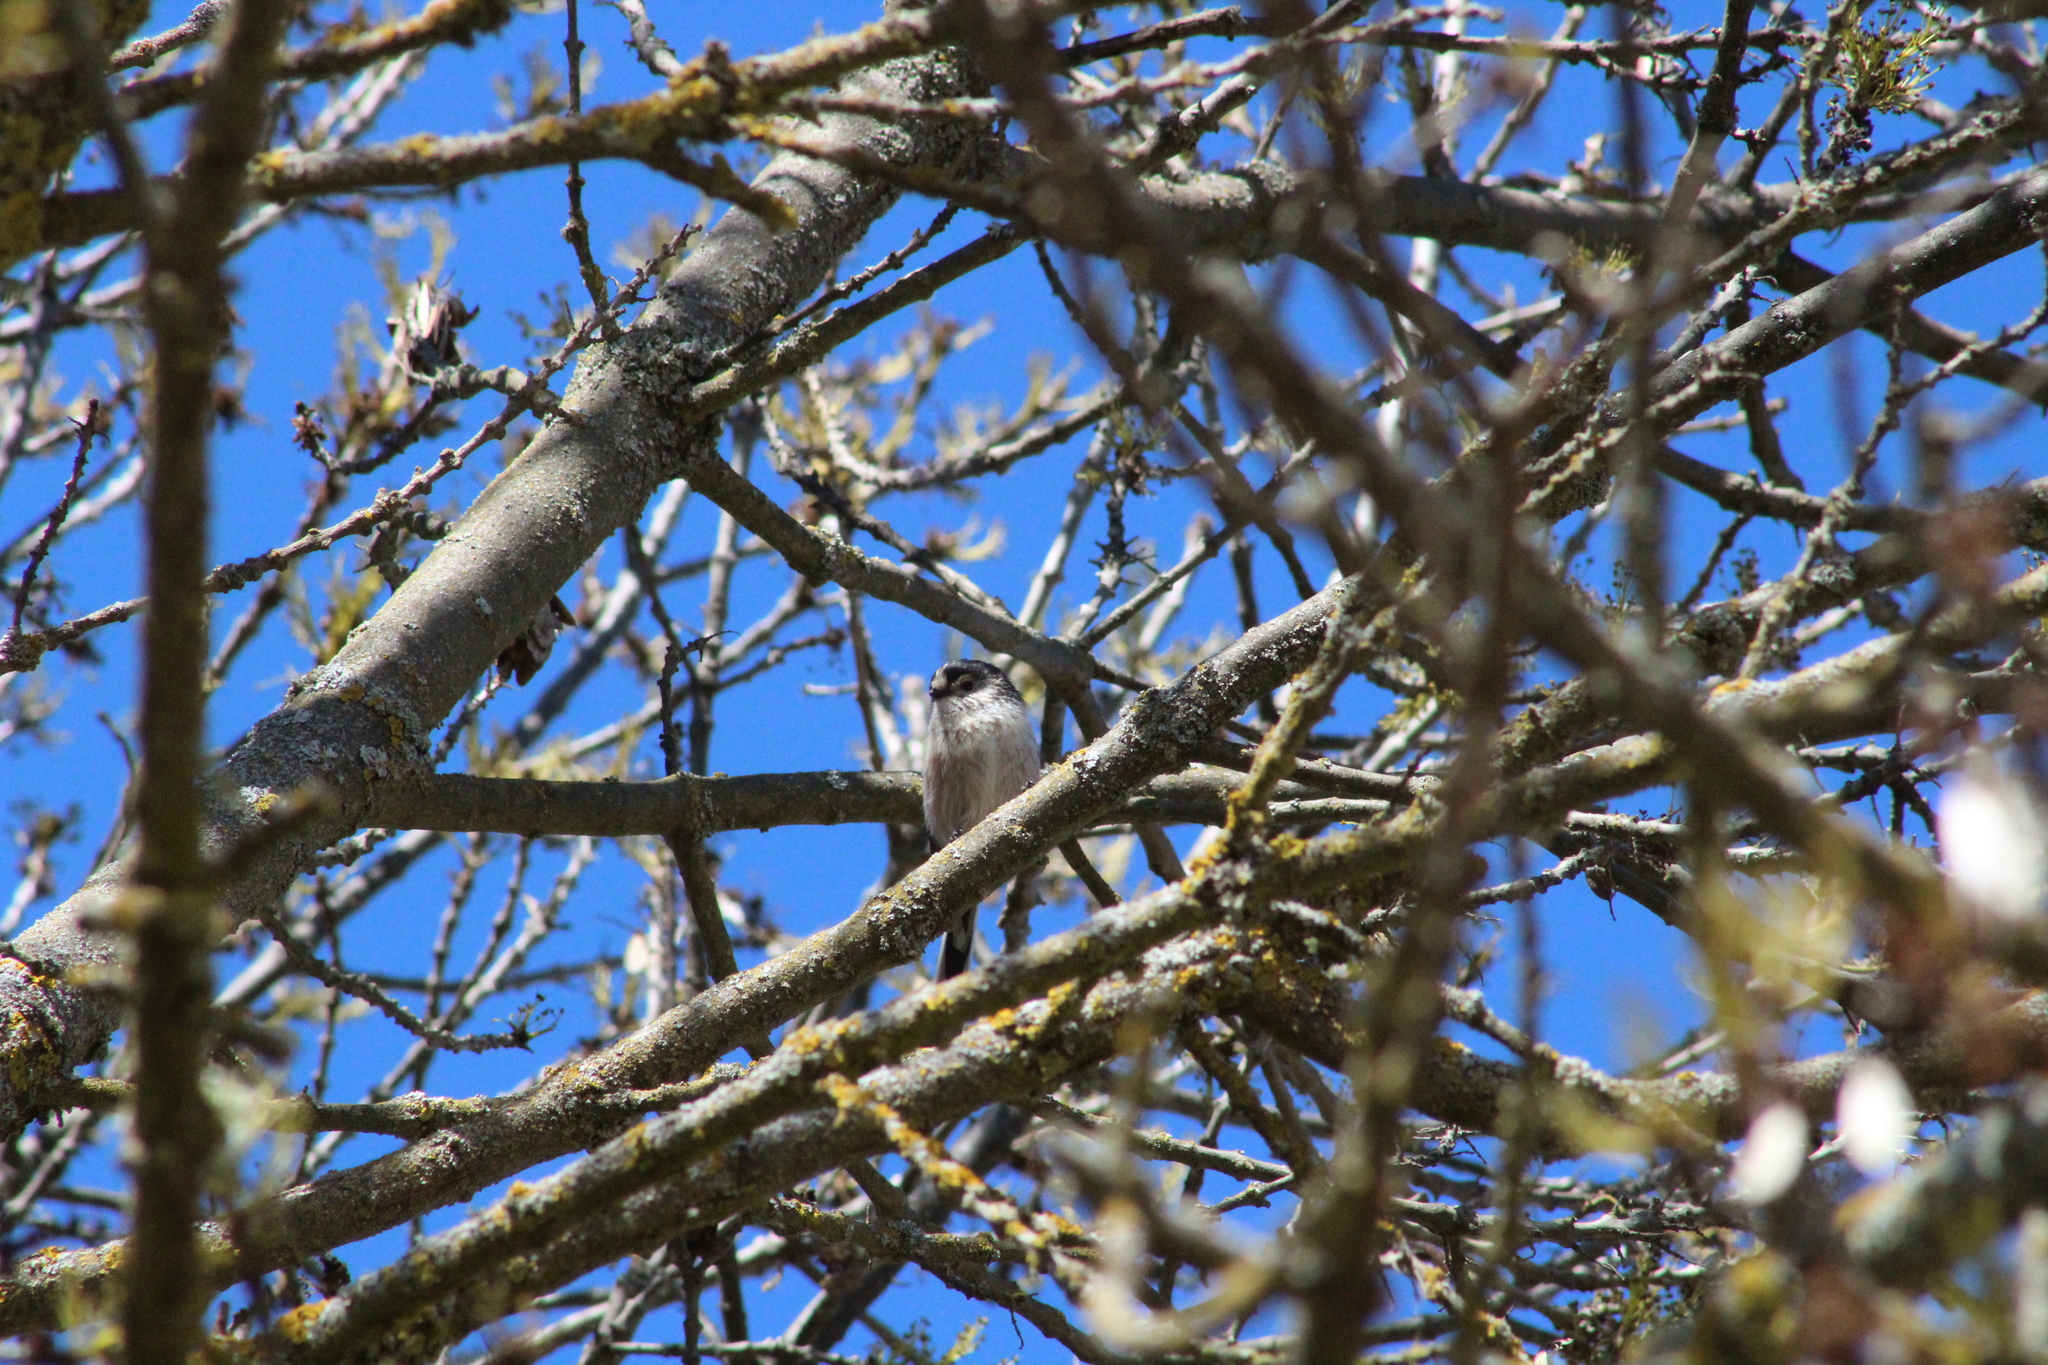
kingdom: Animalia
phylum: Chordata
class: Aves
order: Passeriformes
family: Aegithalidae
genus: Aegithalos
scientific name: Aegithalos caudatus
